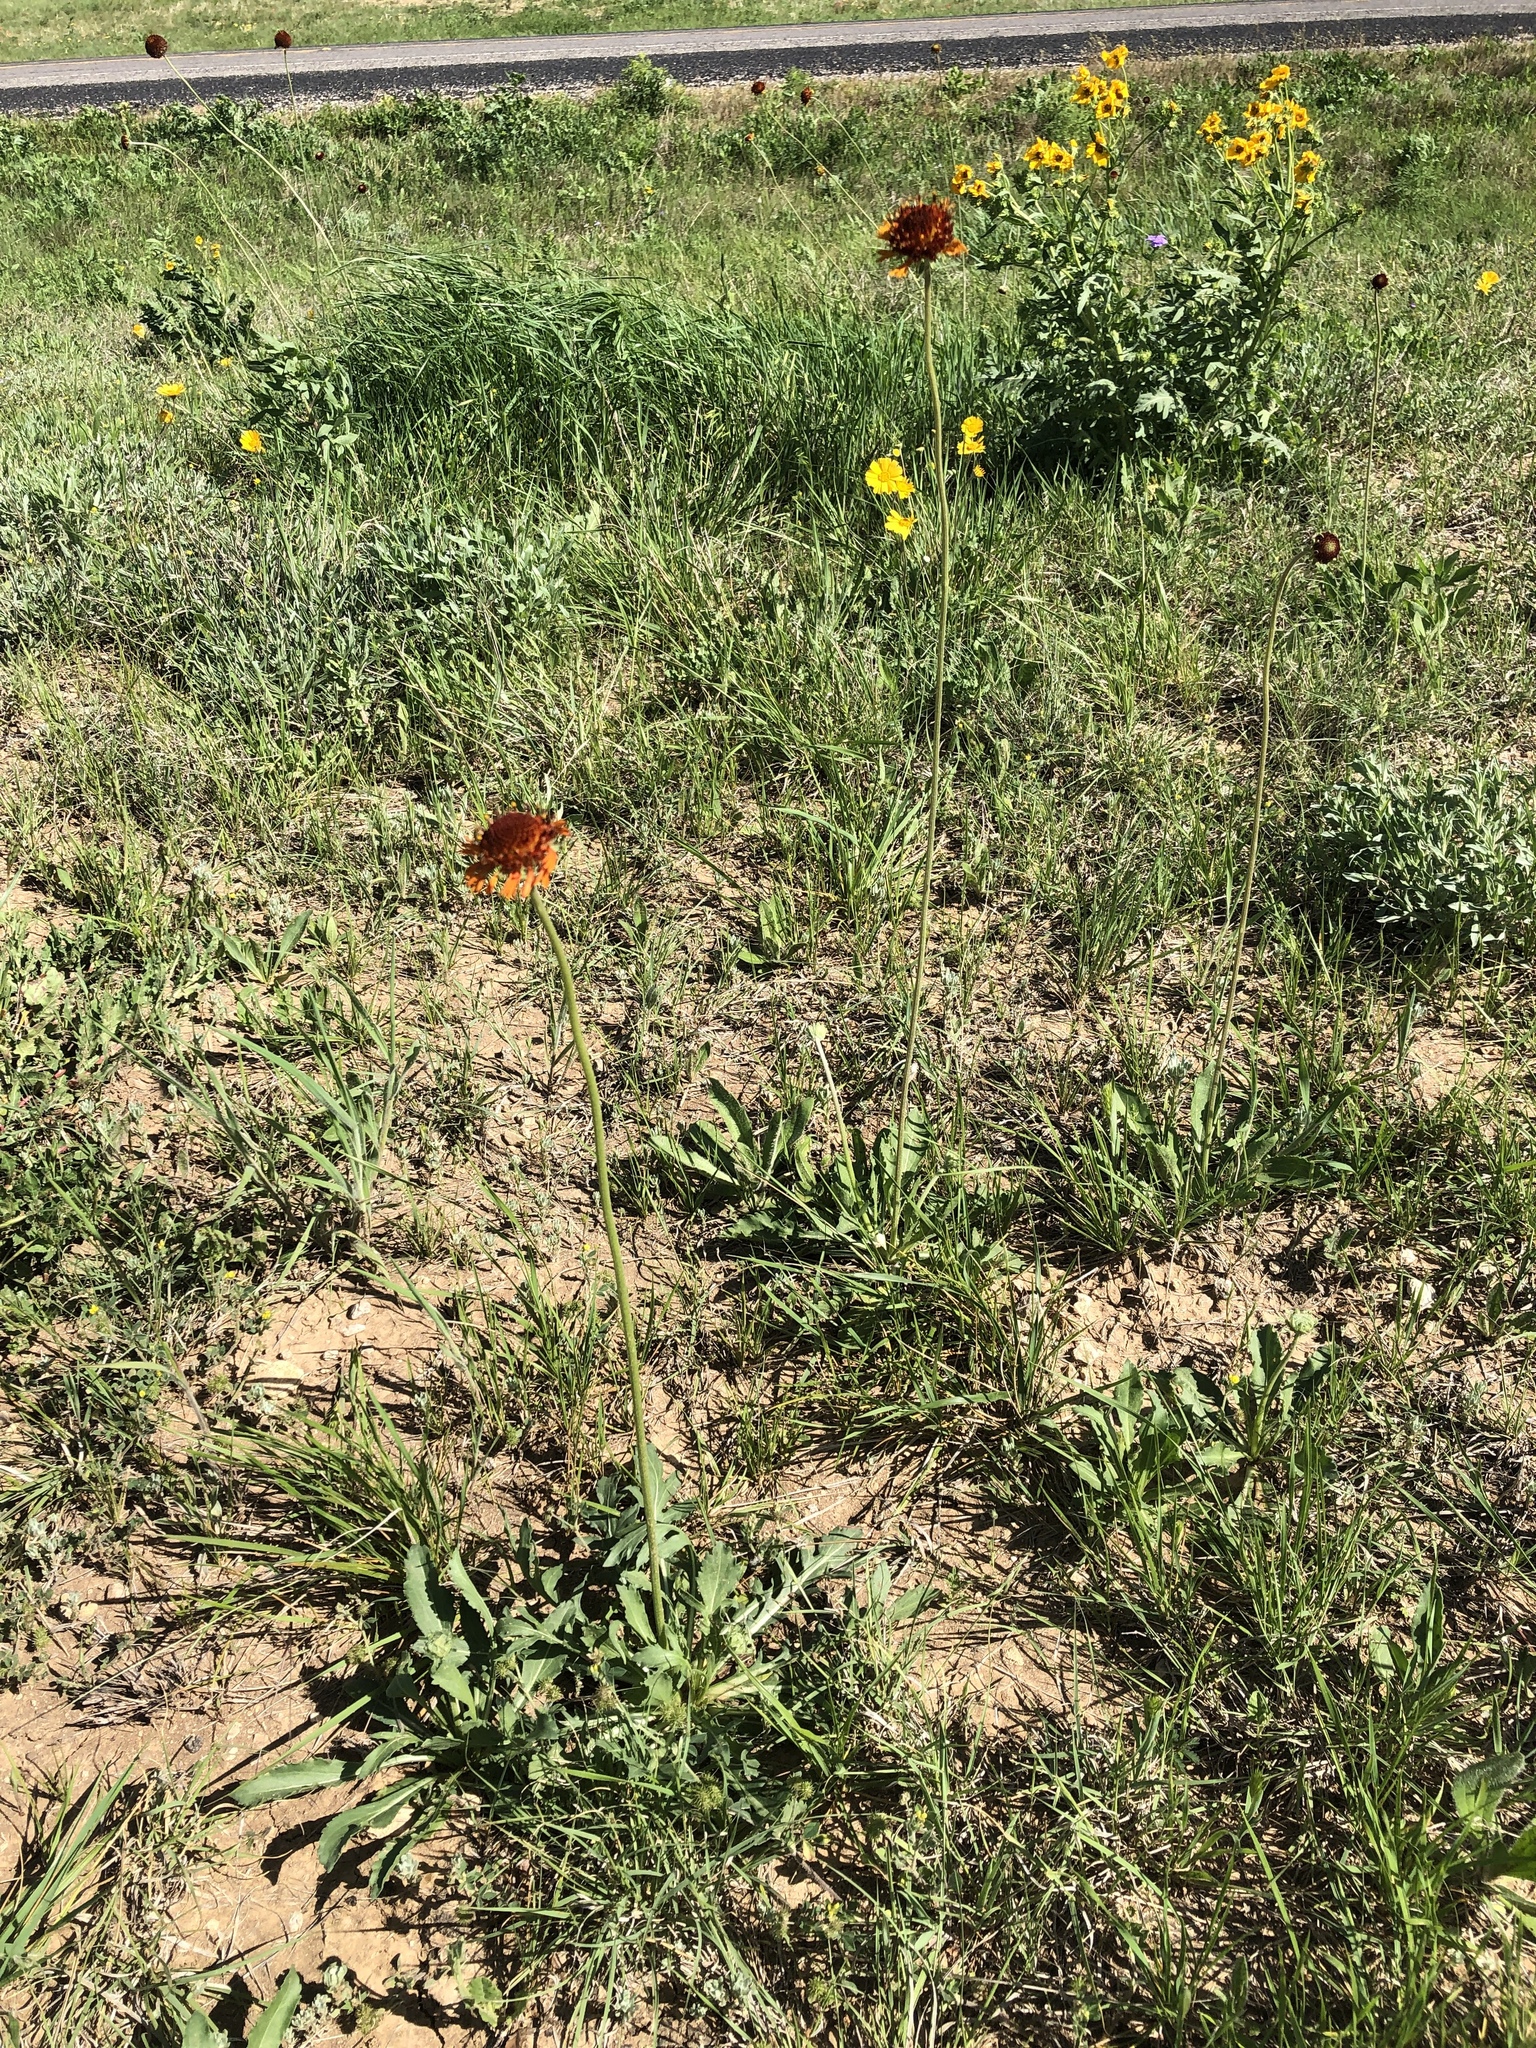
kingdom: Plantae
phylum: Tracheophyta
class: Magnoliopsida
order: Asterales
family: Asteraceae
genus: Gaillardia
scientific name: Gaillardia suavis
